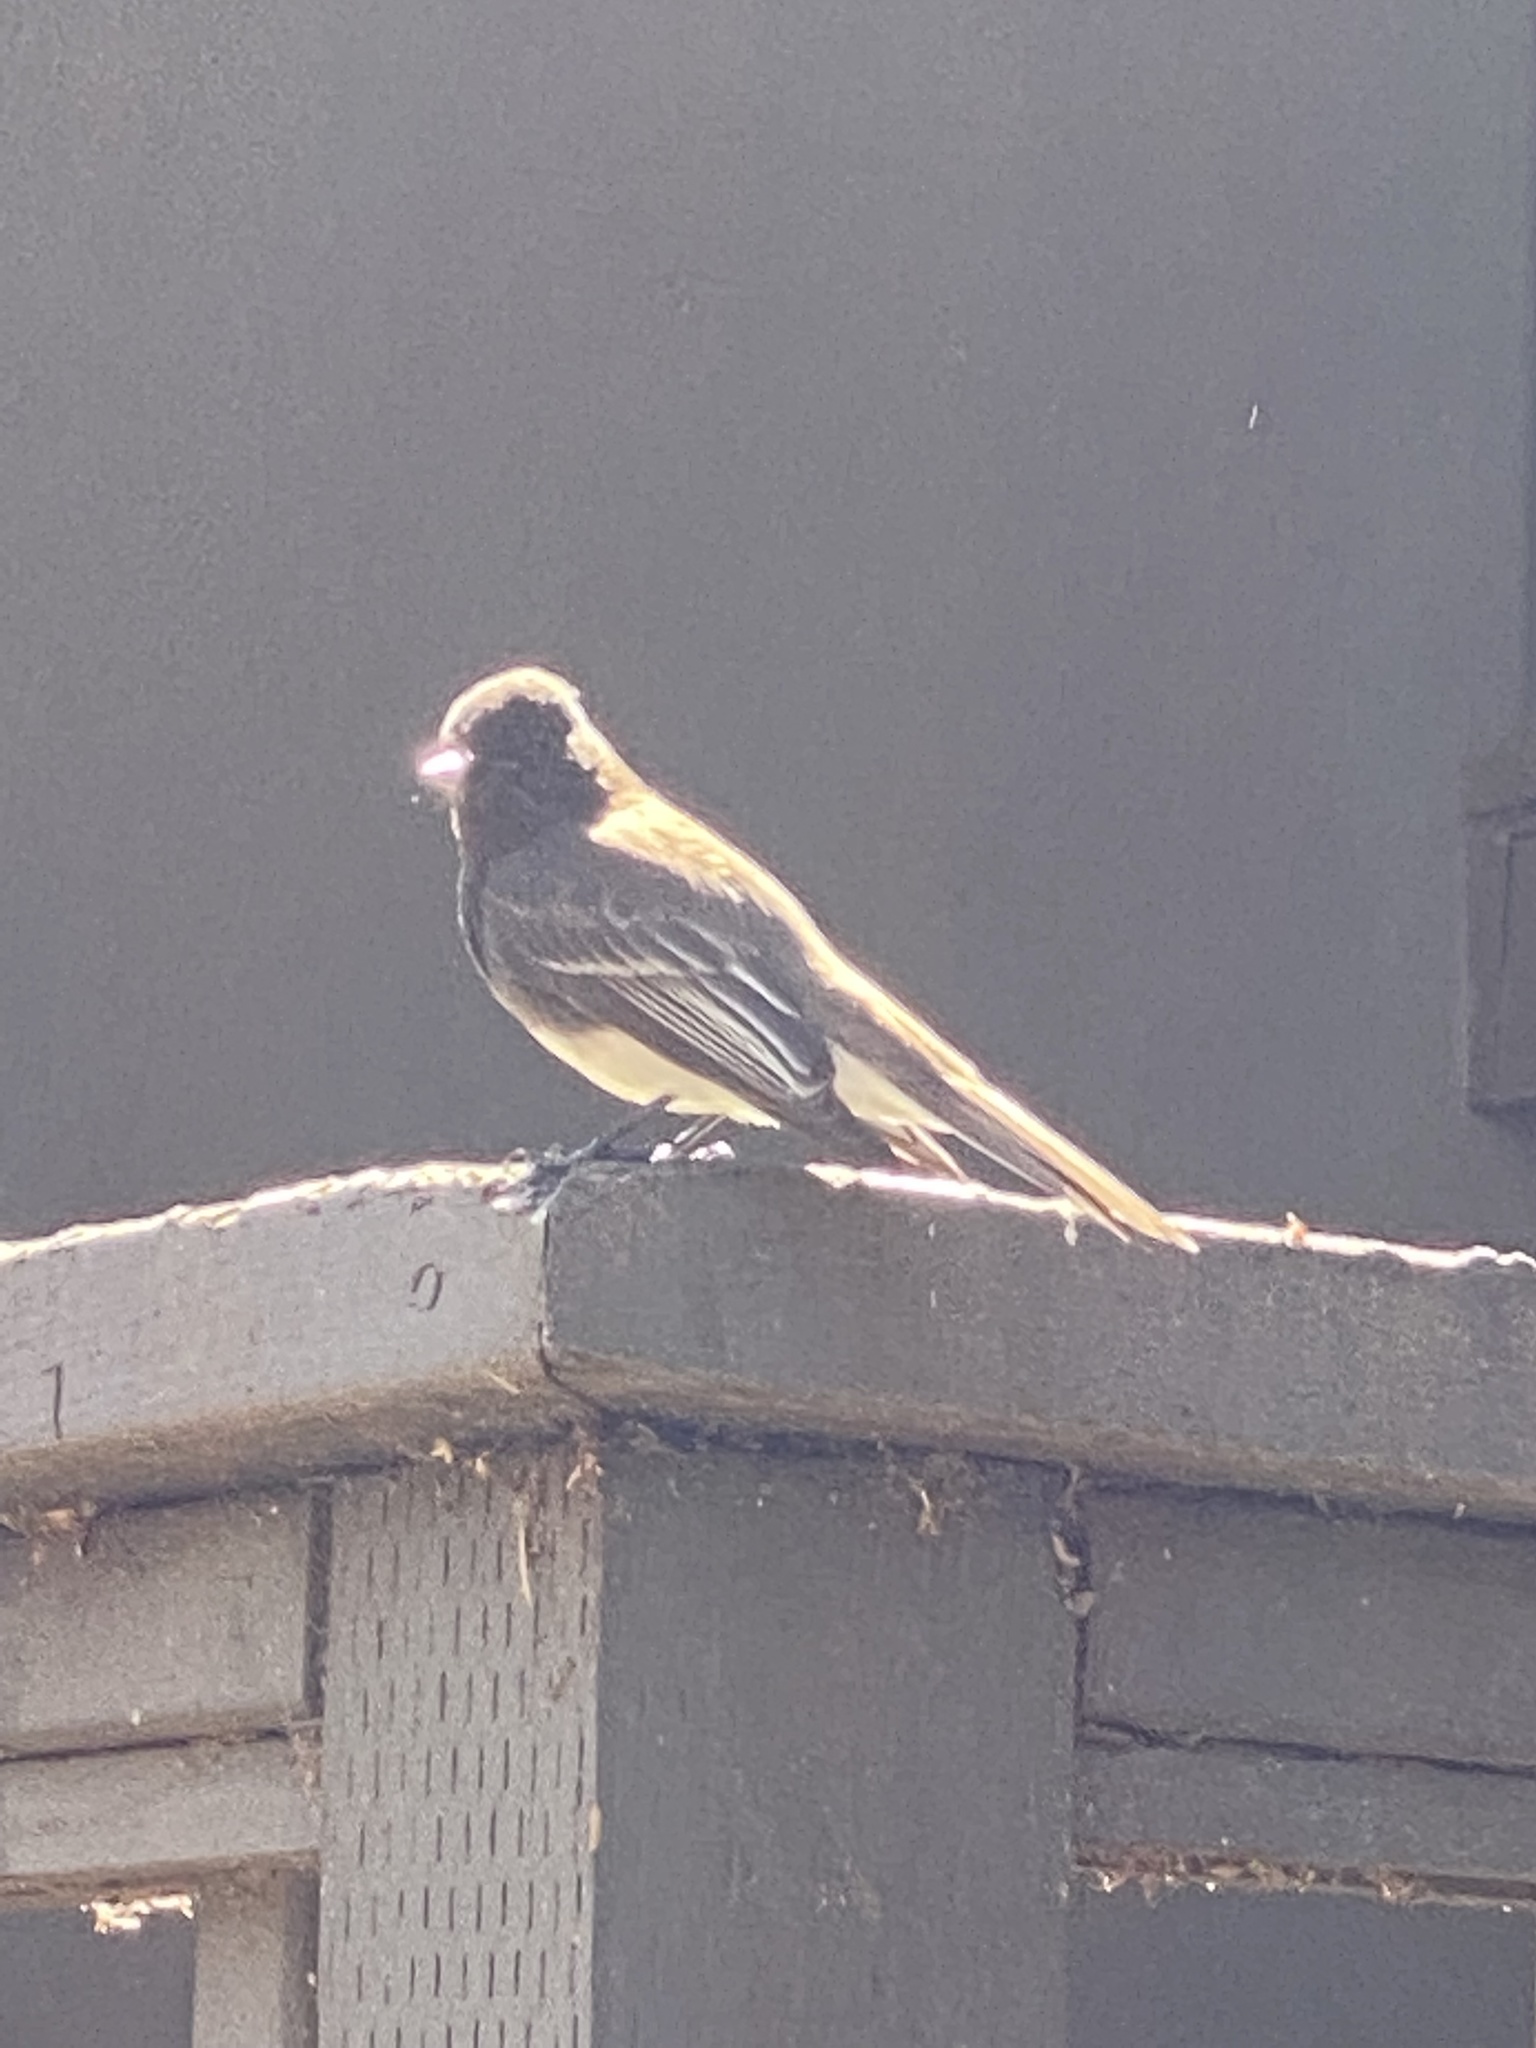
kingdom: Animalia
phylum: Chordata
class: Aves
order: Passeriformes
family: Tyrannidae
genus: Sayornis
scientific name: Sayornis nigricans
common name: Black phoebe
